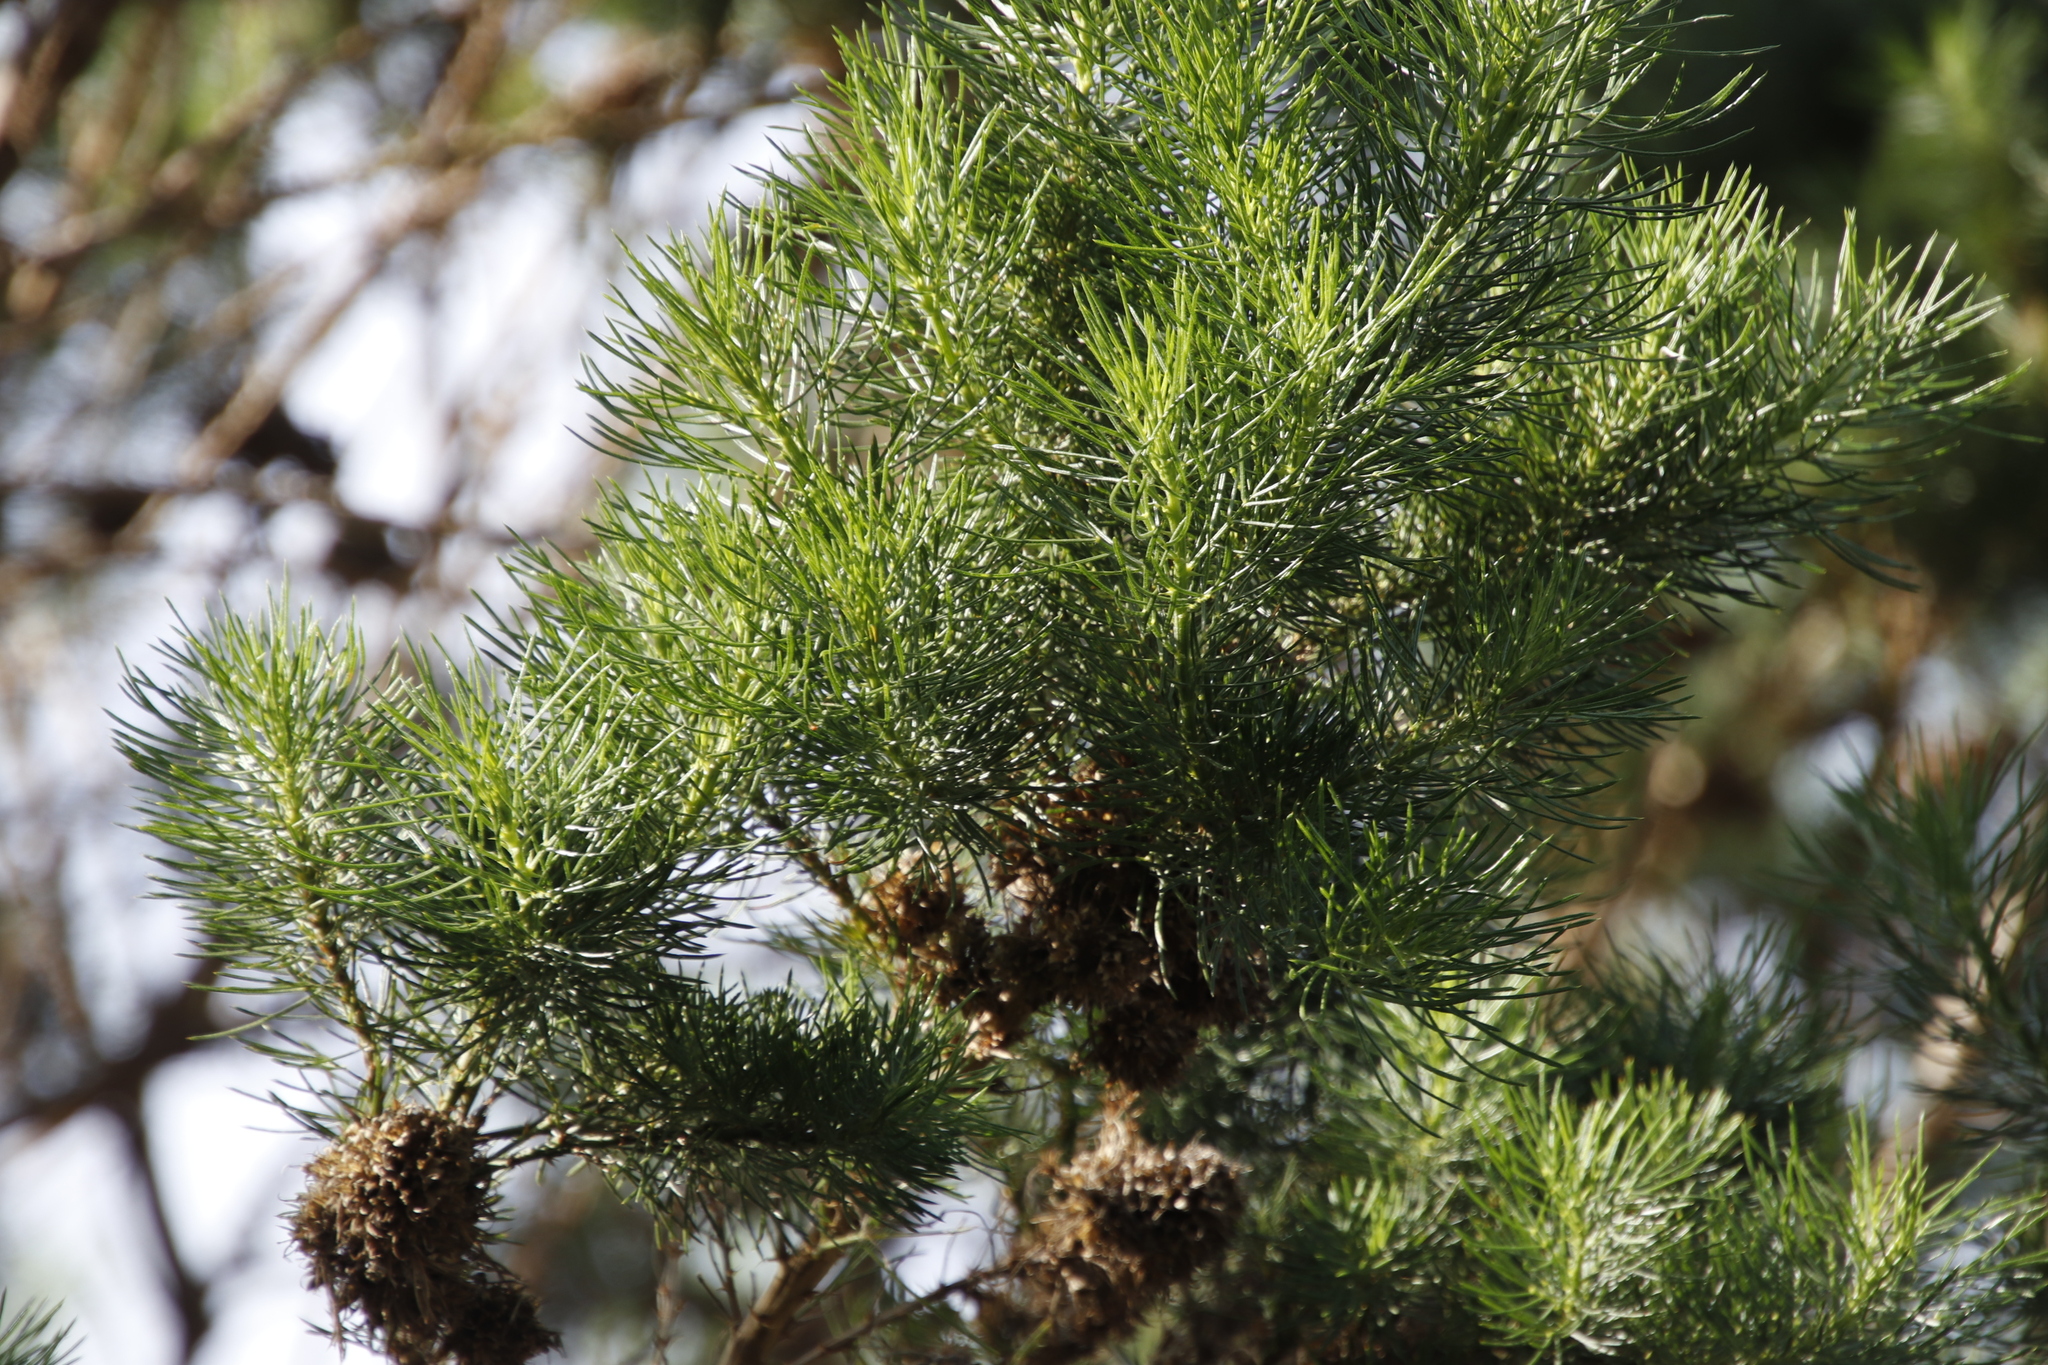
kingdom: Plantae
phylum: Tracheophyta
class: Magnoliopsida
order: Fabales
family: Fabaceae
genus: Psoralea
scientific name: Psoralea pinnata
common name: African scurfpea
